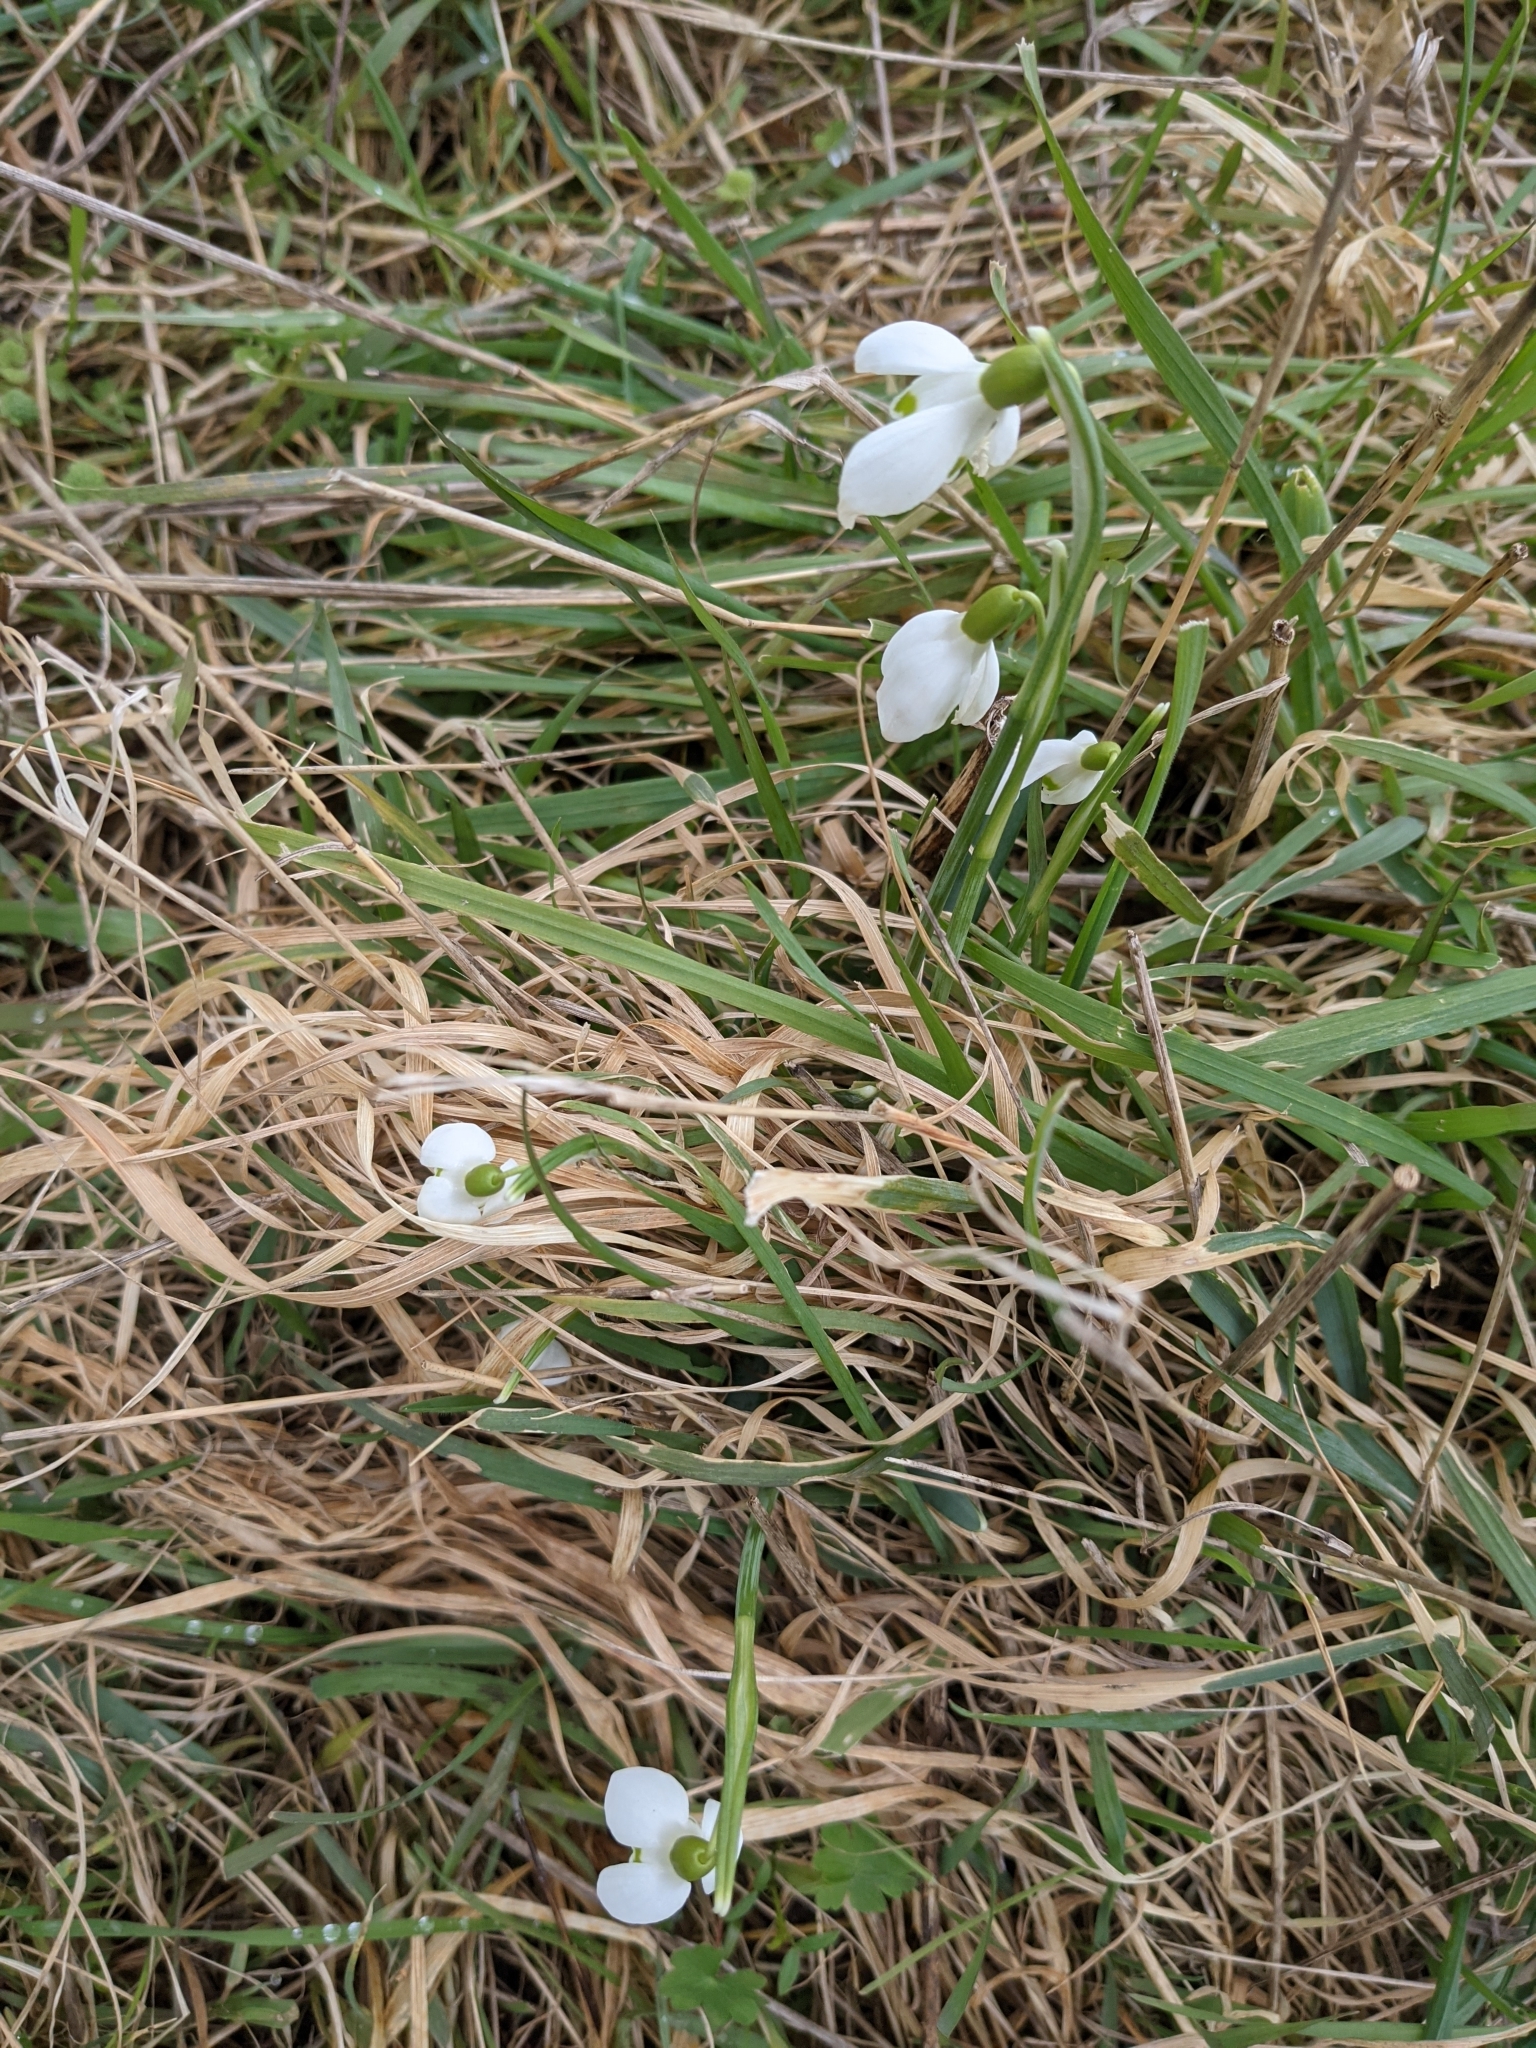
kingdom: Plantae
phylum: Tracheophyta
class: Liliopsida
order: Asparagales
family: Amaryllidaceae
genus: Galanthus
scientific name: Galanthus nivalis
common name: Snowdrop
